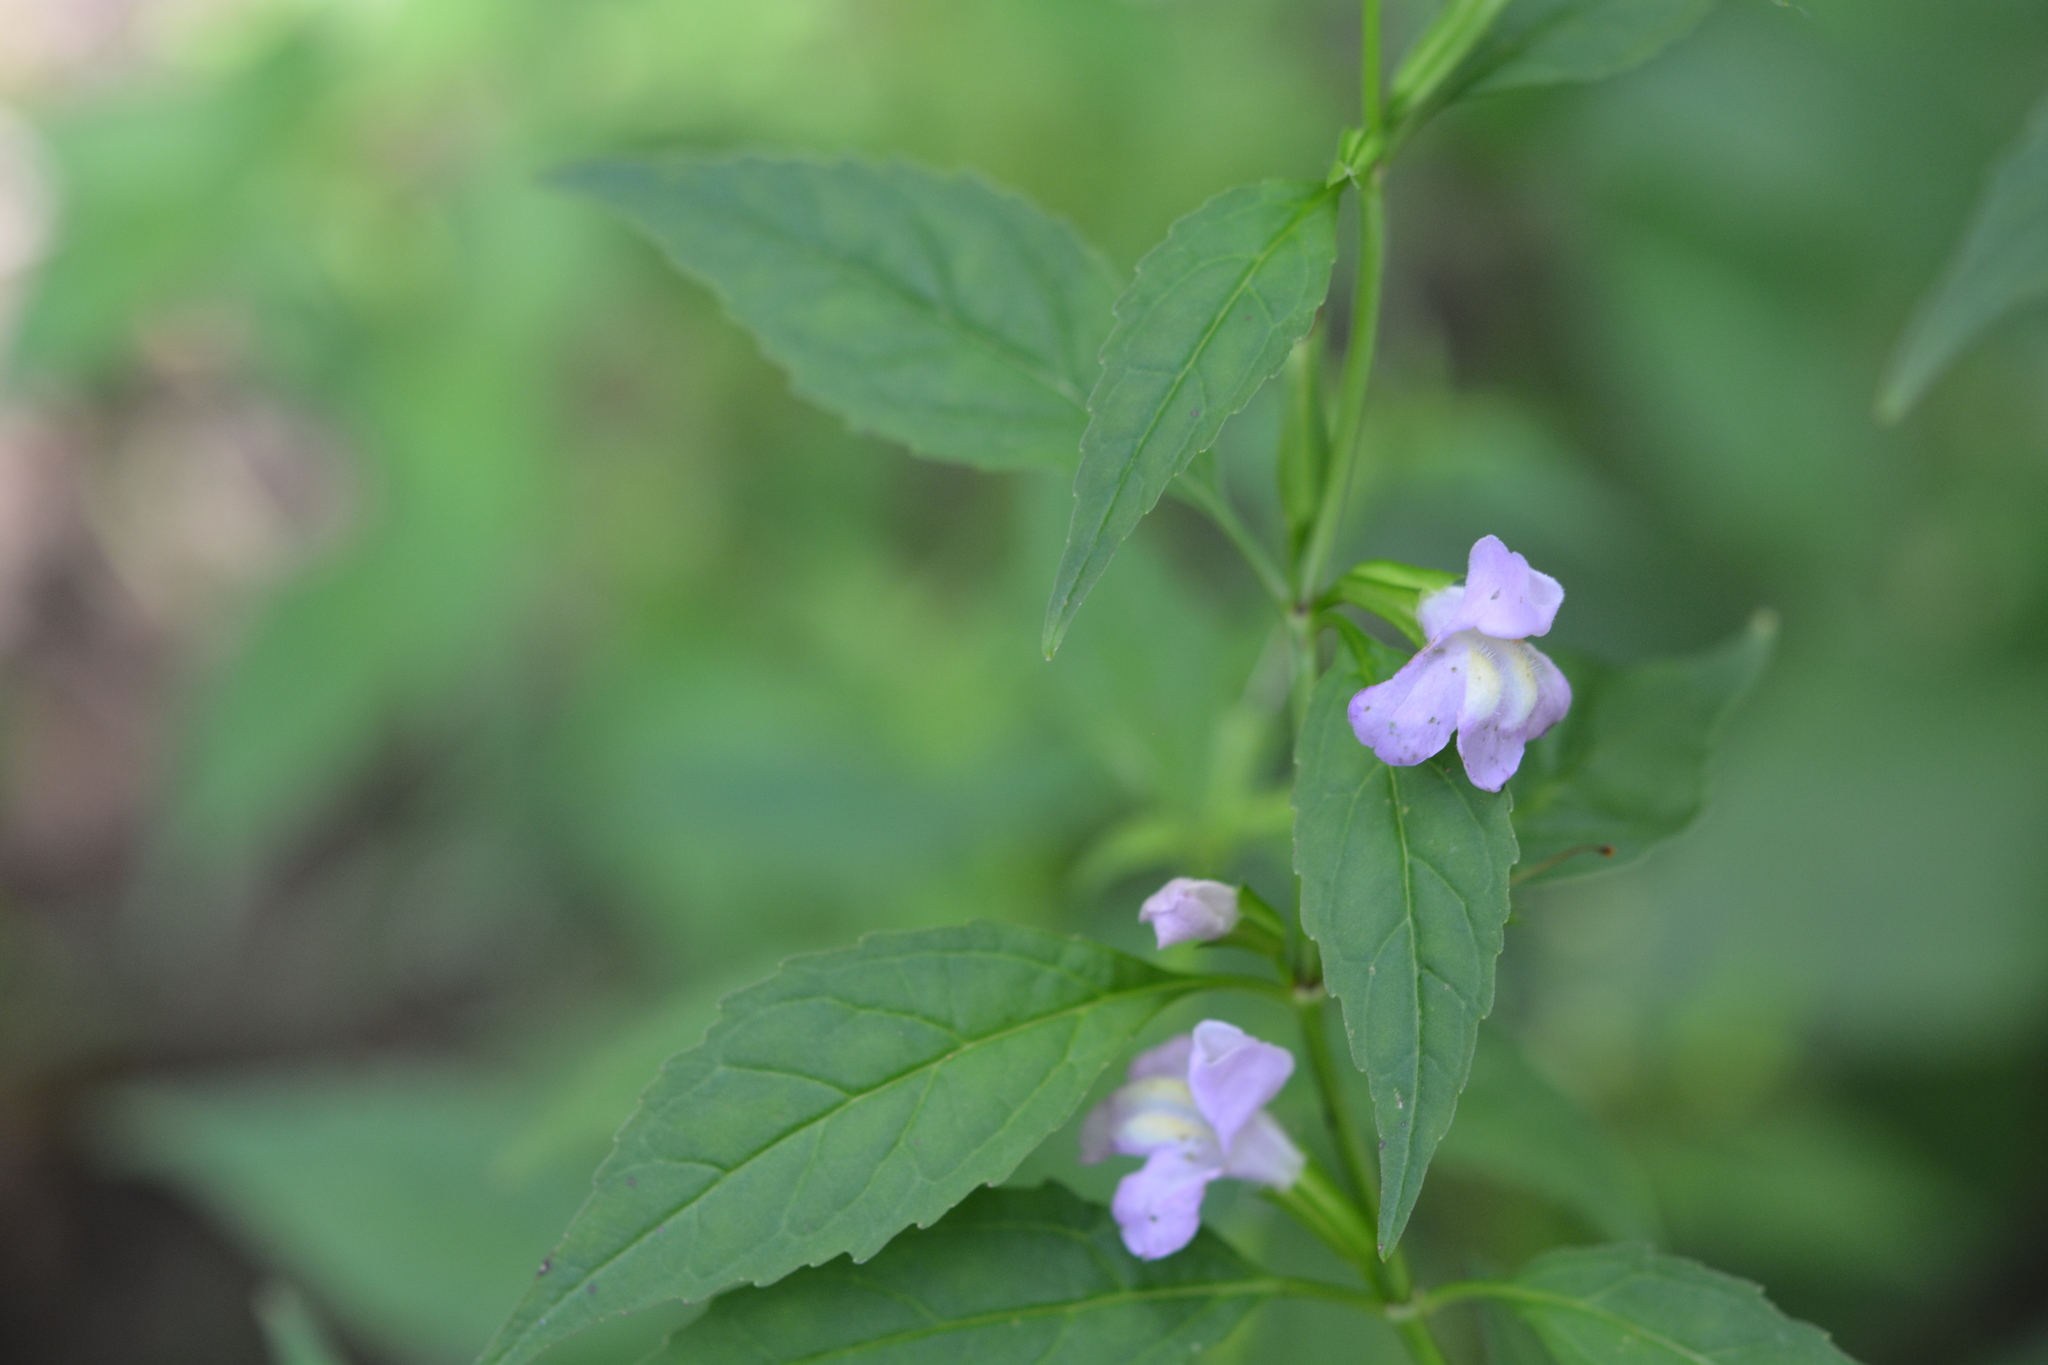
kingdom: Plantae
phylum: Tracheophyta
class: Magnoliopsida
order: Lamiales
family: Phrymaceae
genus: Mimulus
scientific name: Mimulus alatus
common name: Sharp-wing monkey-flower
